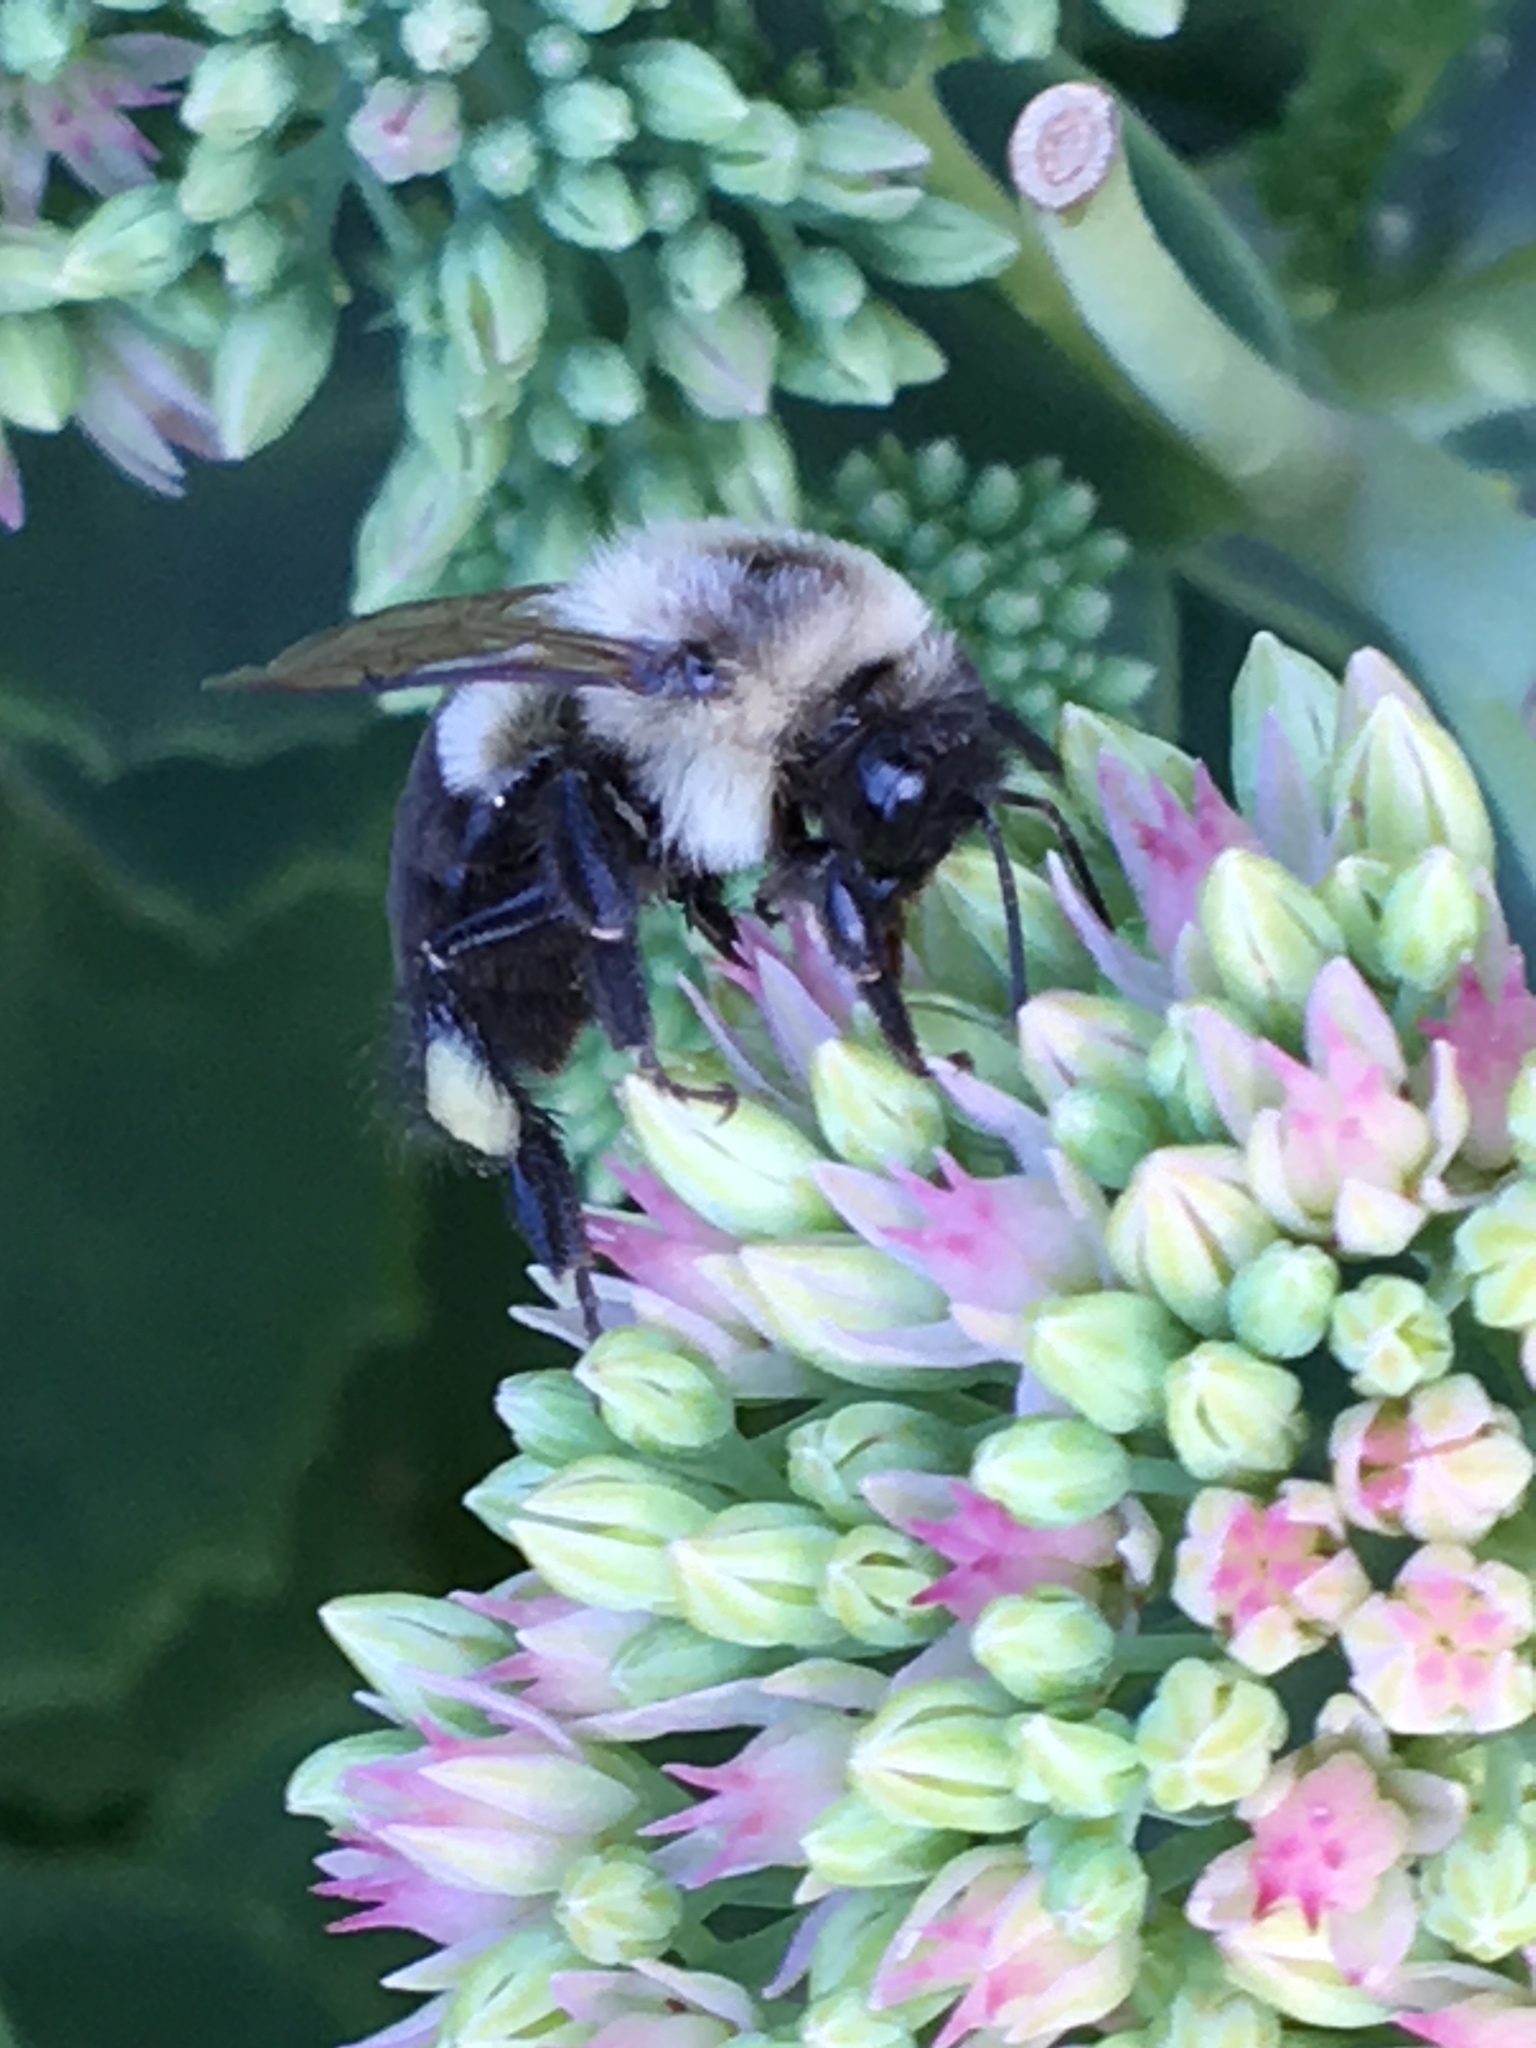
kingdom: Animalia
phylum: Arthropoda
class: Insecta
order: Hymenoptera
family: Apidae
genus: Bombus
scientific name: Bombus impatiens
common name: Common eastern bumble bee
